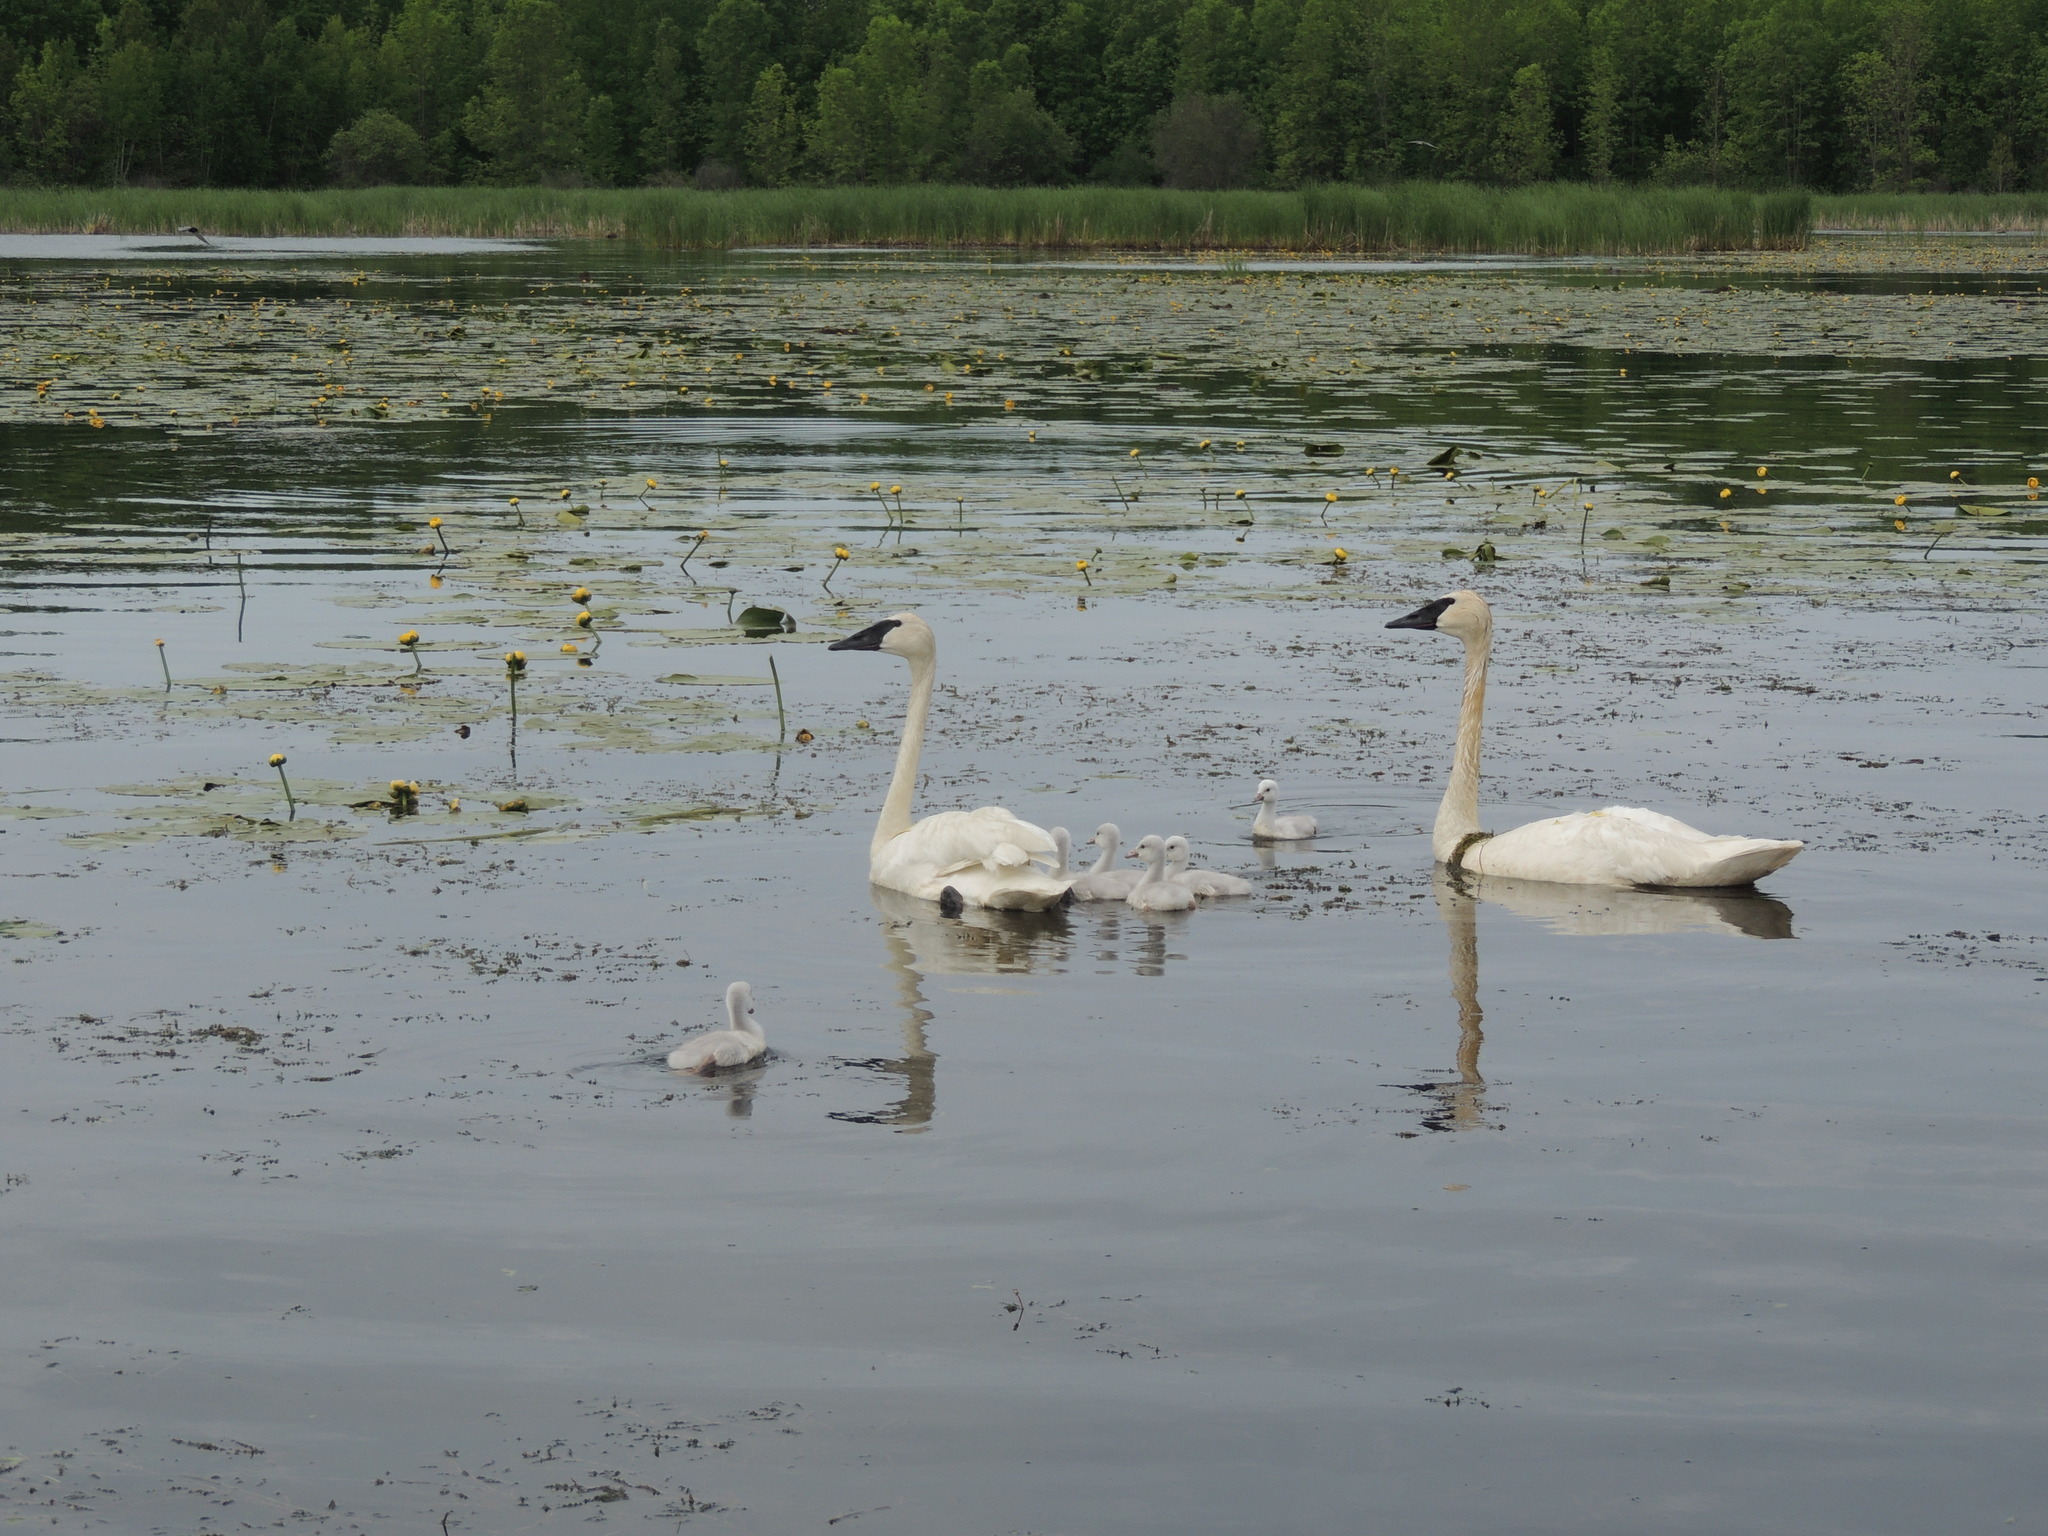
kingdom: Animalia
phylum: Chordata
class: Aves
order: Anseriformes
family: Anatidae
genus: Cygnus
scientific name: Cygnus buccinator
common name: Trumpeter swan
